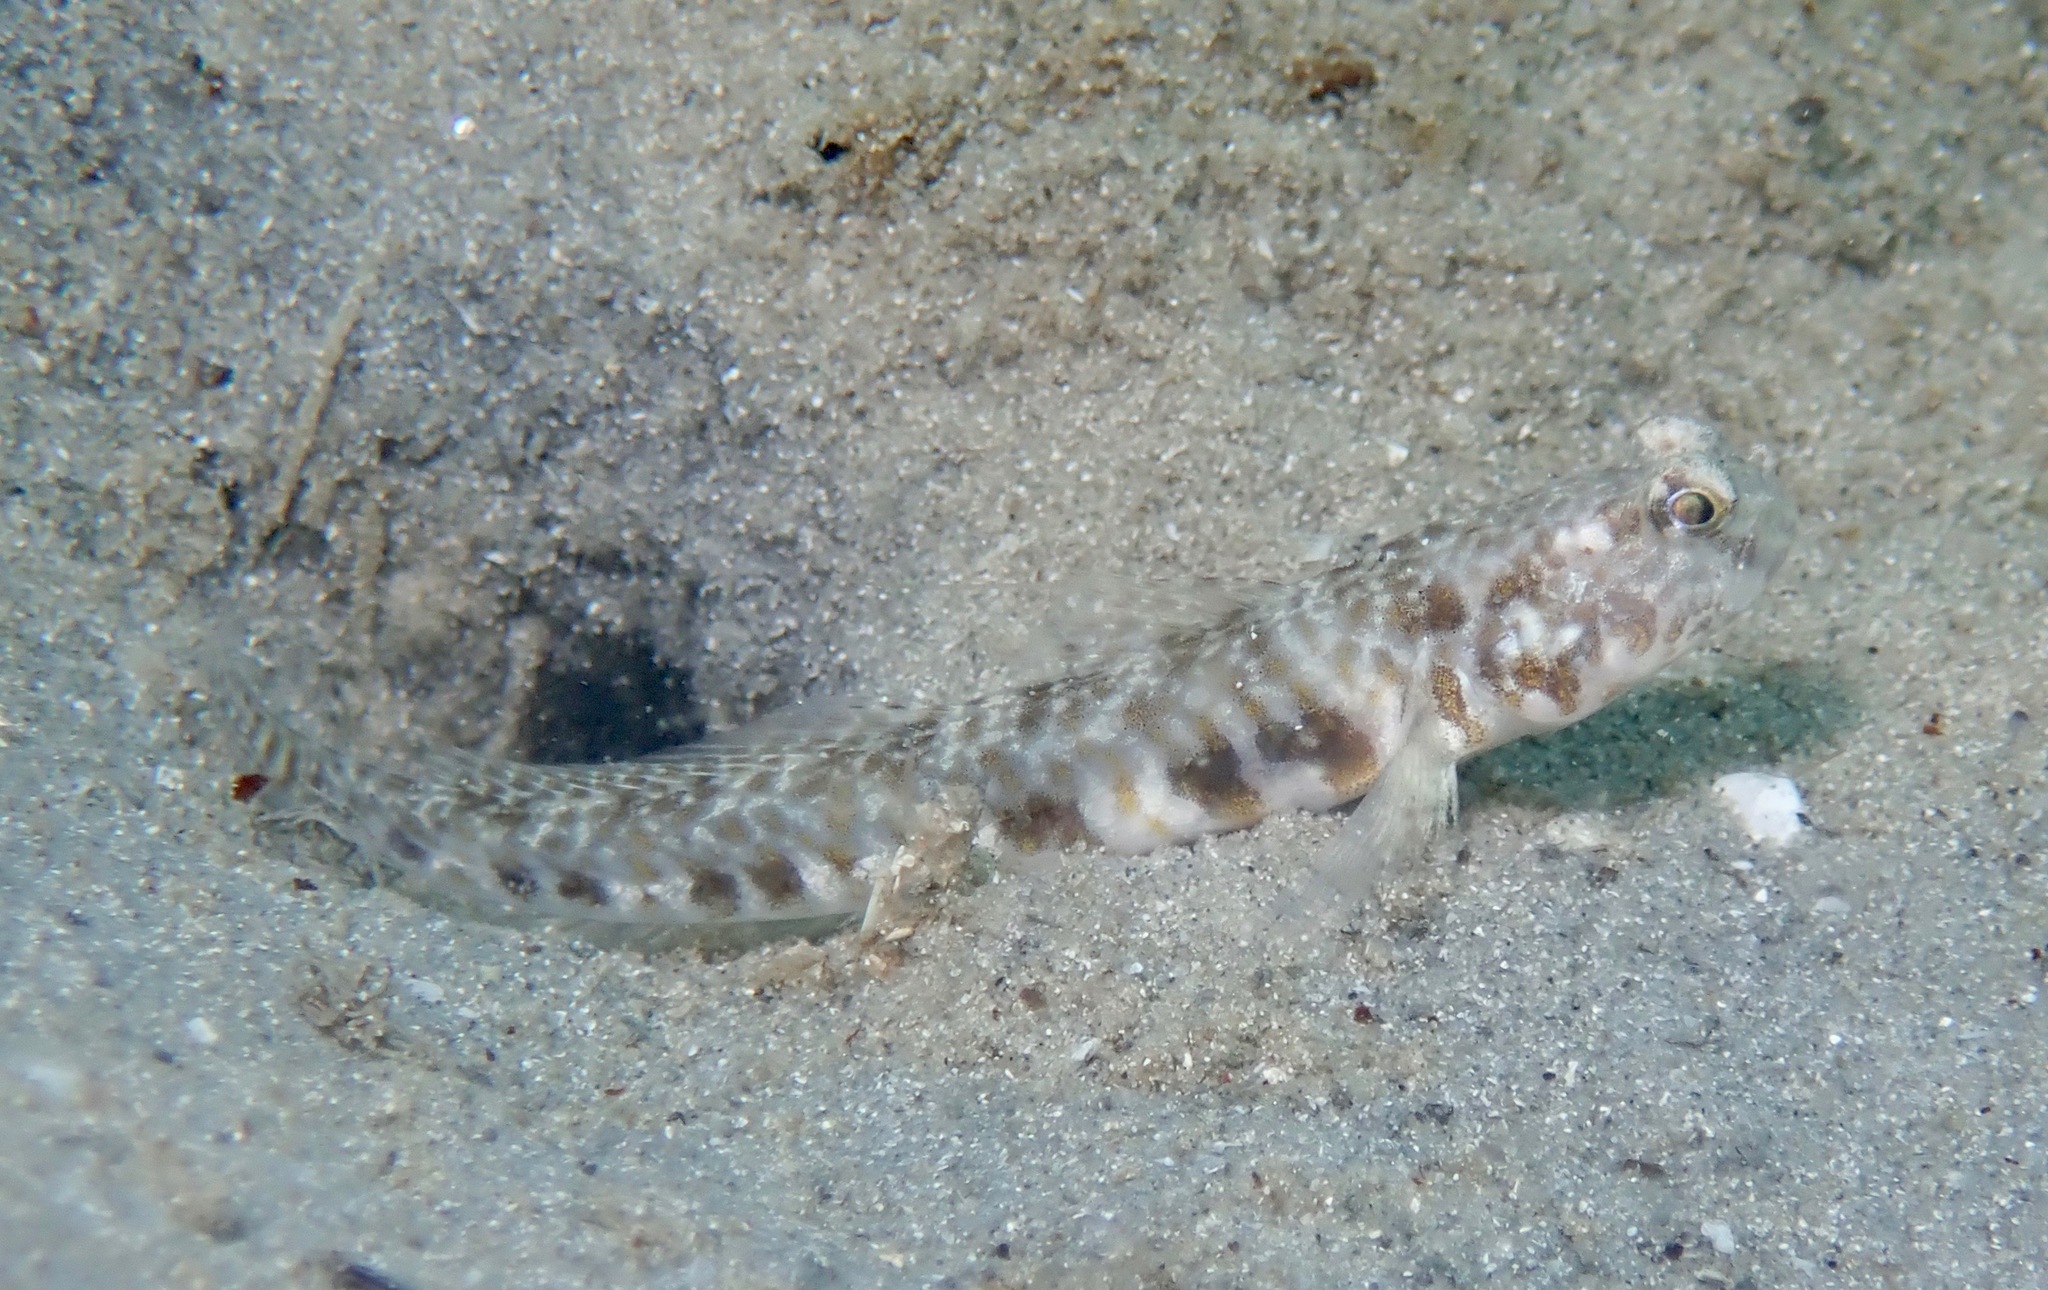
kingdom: Animalia
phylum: Chordata
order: Perciformes
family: Gobiidae
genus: Nes
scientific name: Nes longus
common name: Orangespotted goby
